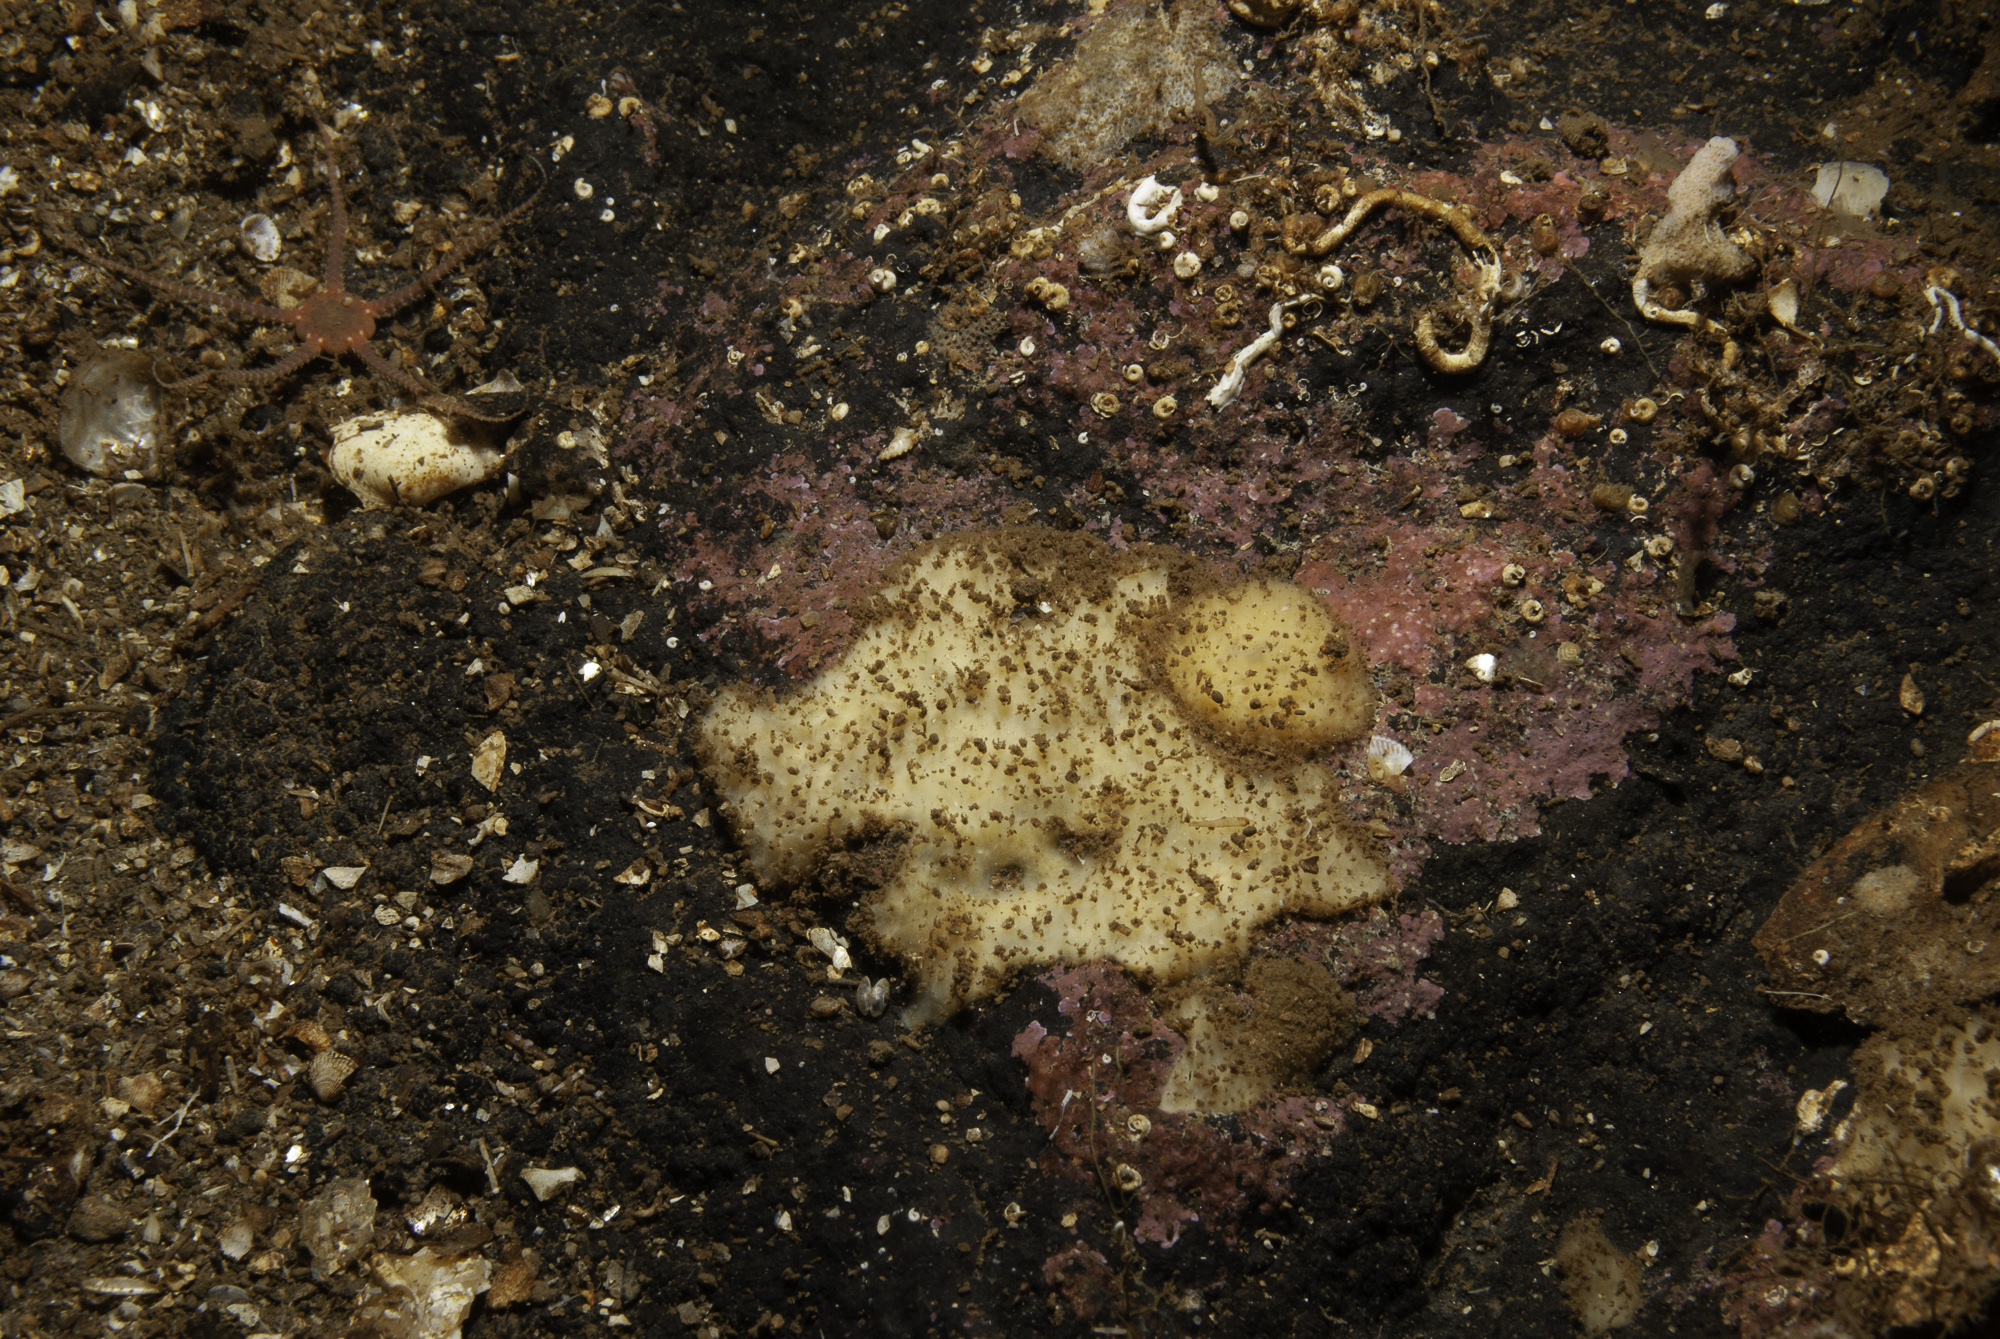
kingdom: Animalia
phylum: Porifera
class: Demospongiae
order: Axinellida
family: Stelligeridae
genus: Paratimea
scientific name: Paratimea loennbergi
